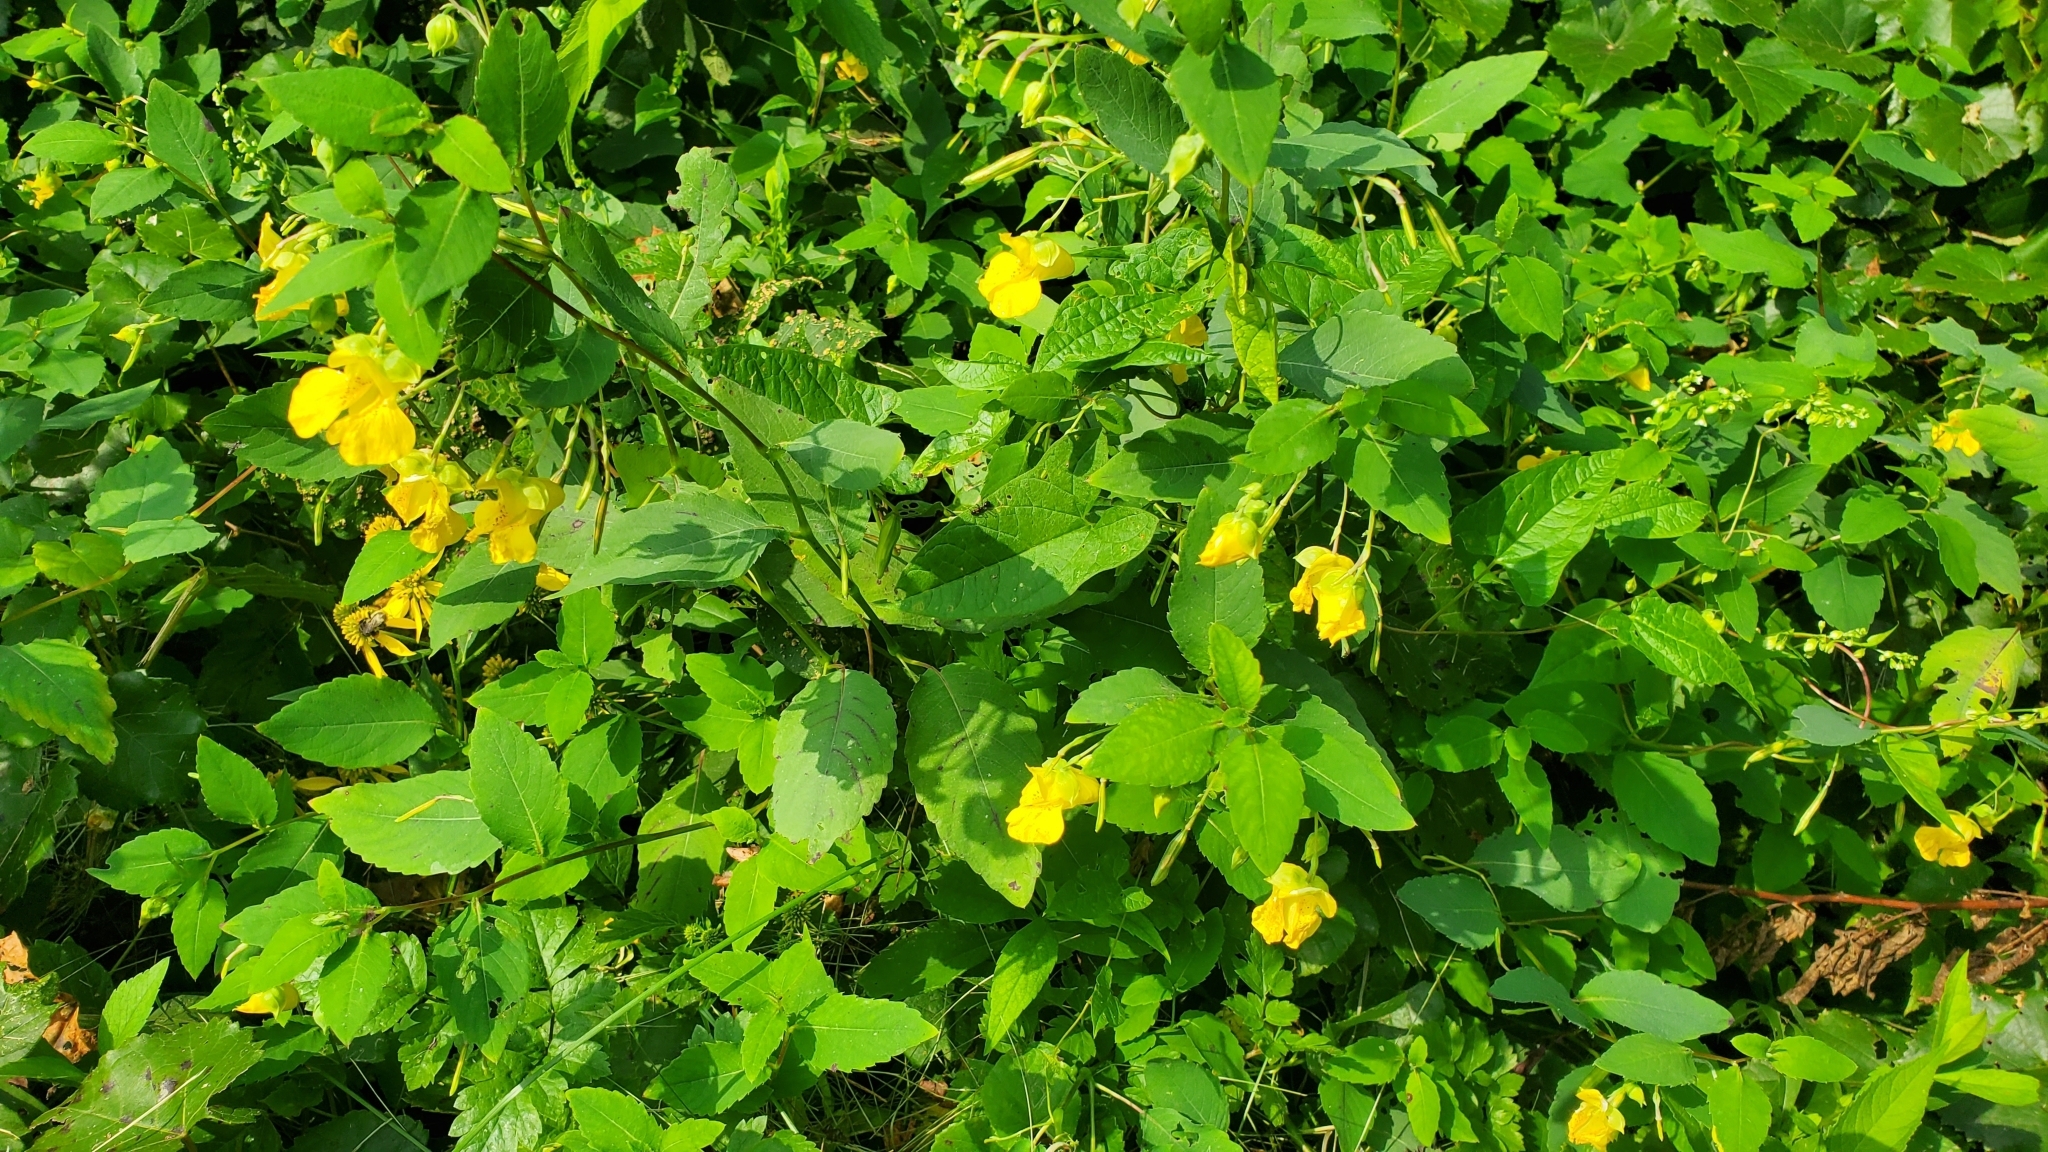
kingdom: Plantae
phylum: Tracheophyta
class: Magnoliopsida
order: Ericales
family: Balsaminaceae
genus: Impatiens
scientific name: Impatiens pallida
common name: Pale snapweed
